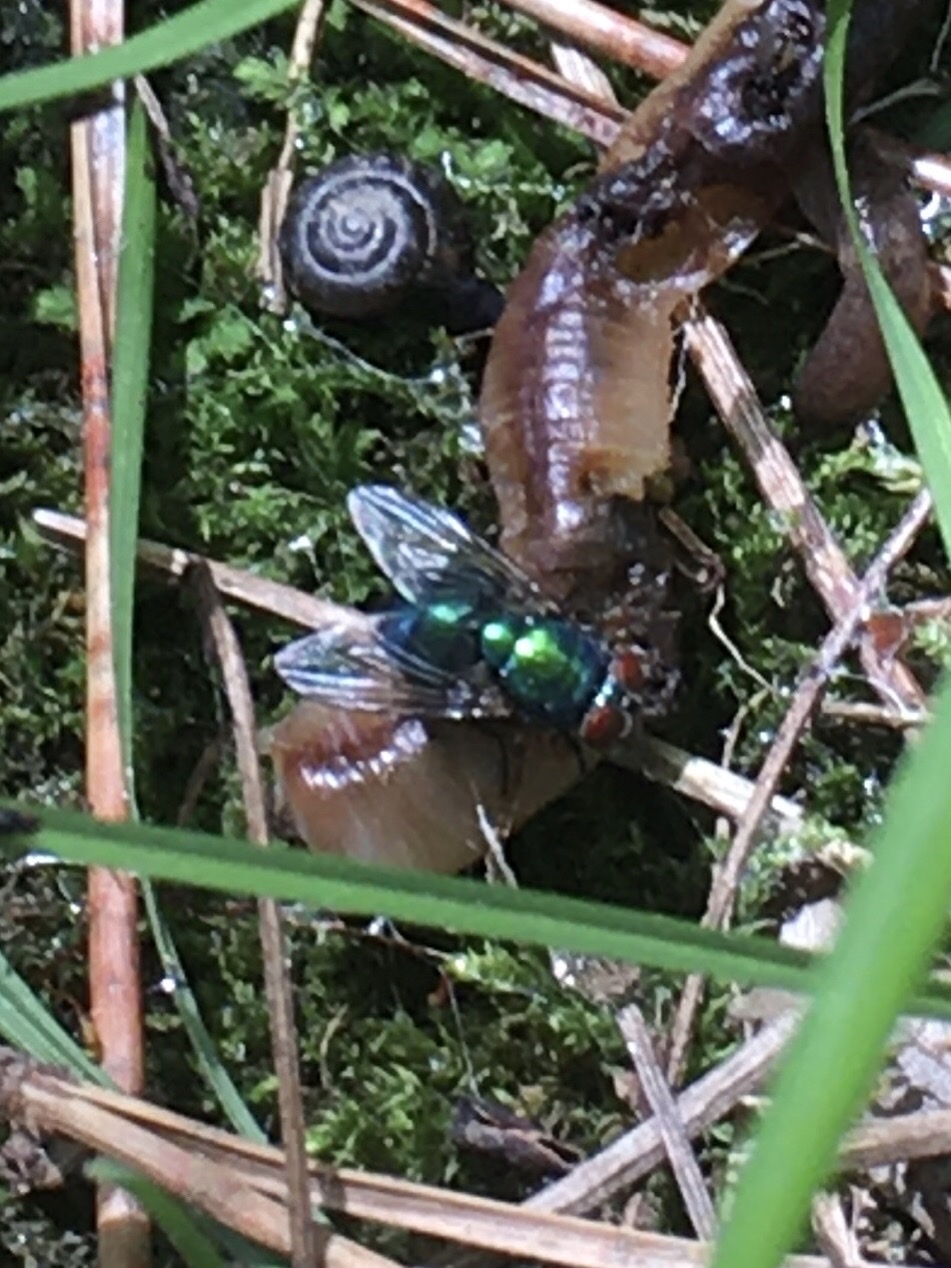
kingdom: Animalia
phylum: Arthropoda
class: Insecta
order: Diptera
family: Calliphoridae
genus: Lucilia
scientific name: Lucilia sericata
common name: Blow fly
